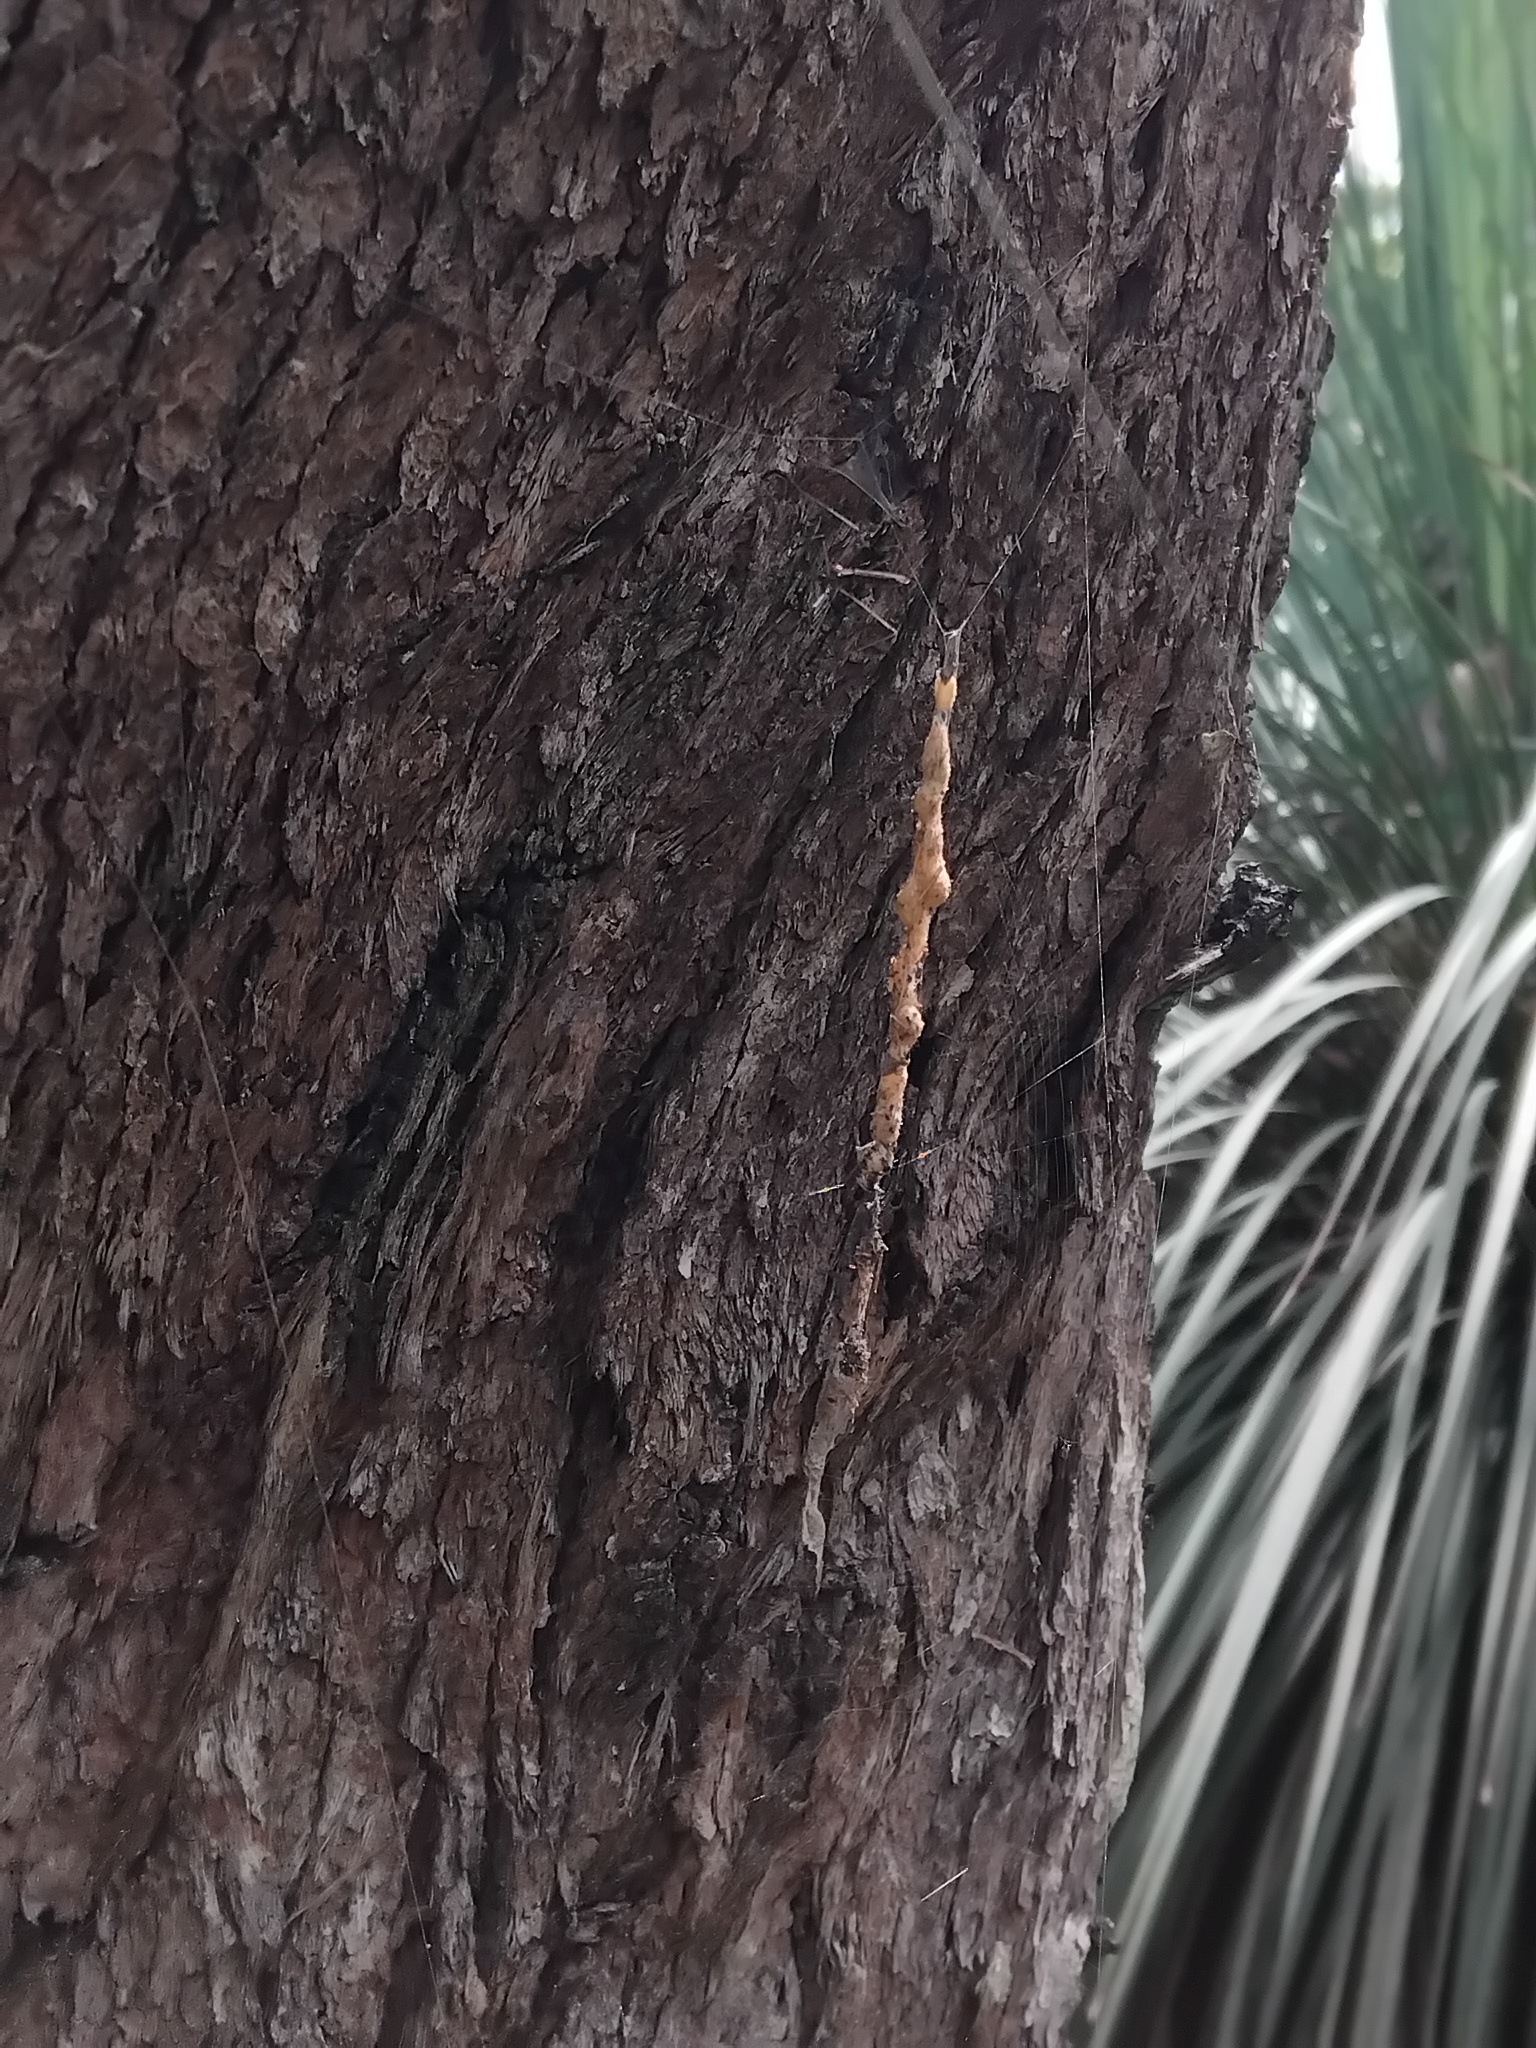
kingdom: Animalia
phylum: Arthropoda
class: Arachnida
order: Araneae
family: Araneidae
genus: Trichonephila
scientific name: Trichonephila plumipes
